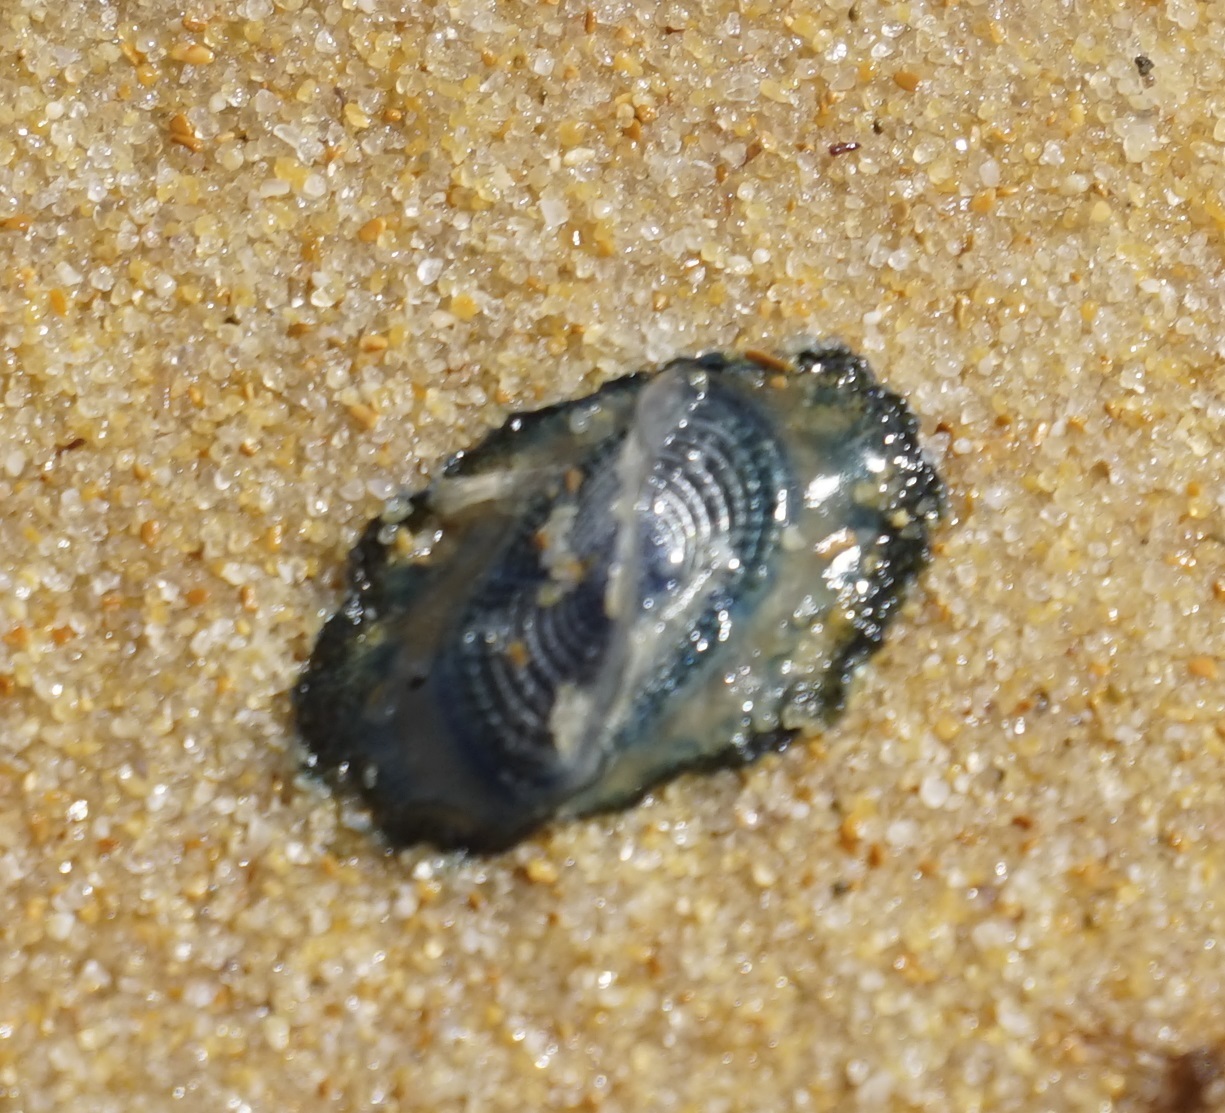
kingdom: Animalia
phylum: Cnidaria
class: Hydrozoa
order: Anthoathecata
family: Porpitidae
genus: Velella
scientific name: Velella velella
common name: By-the-wind-sailor
